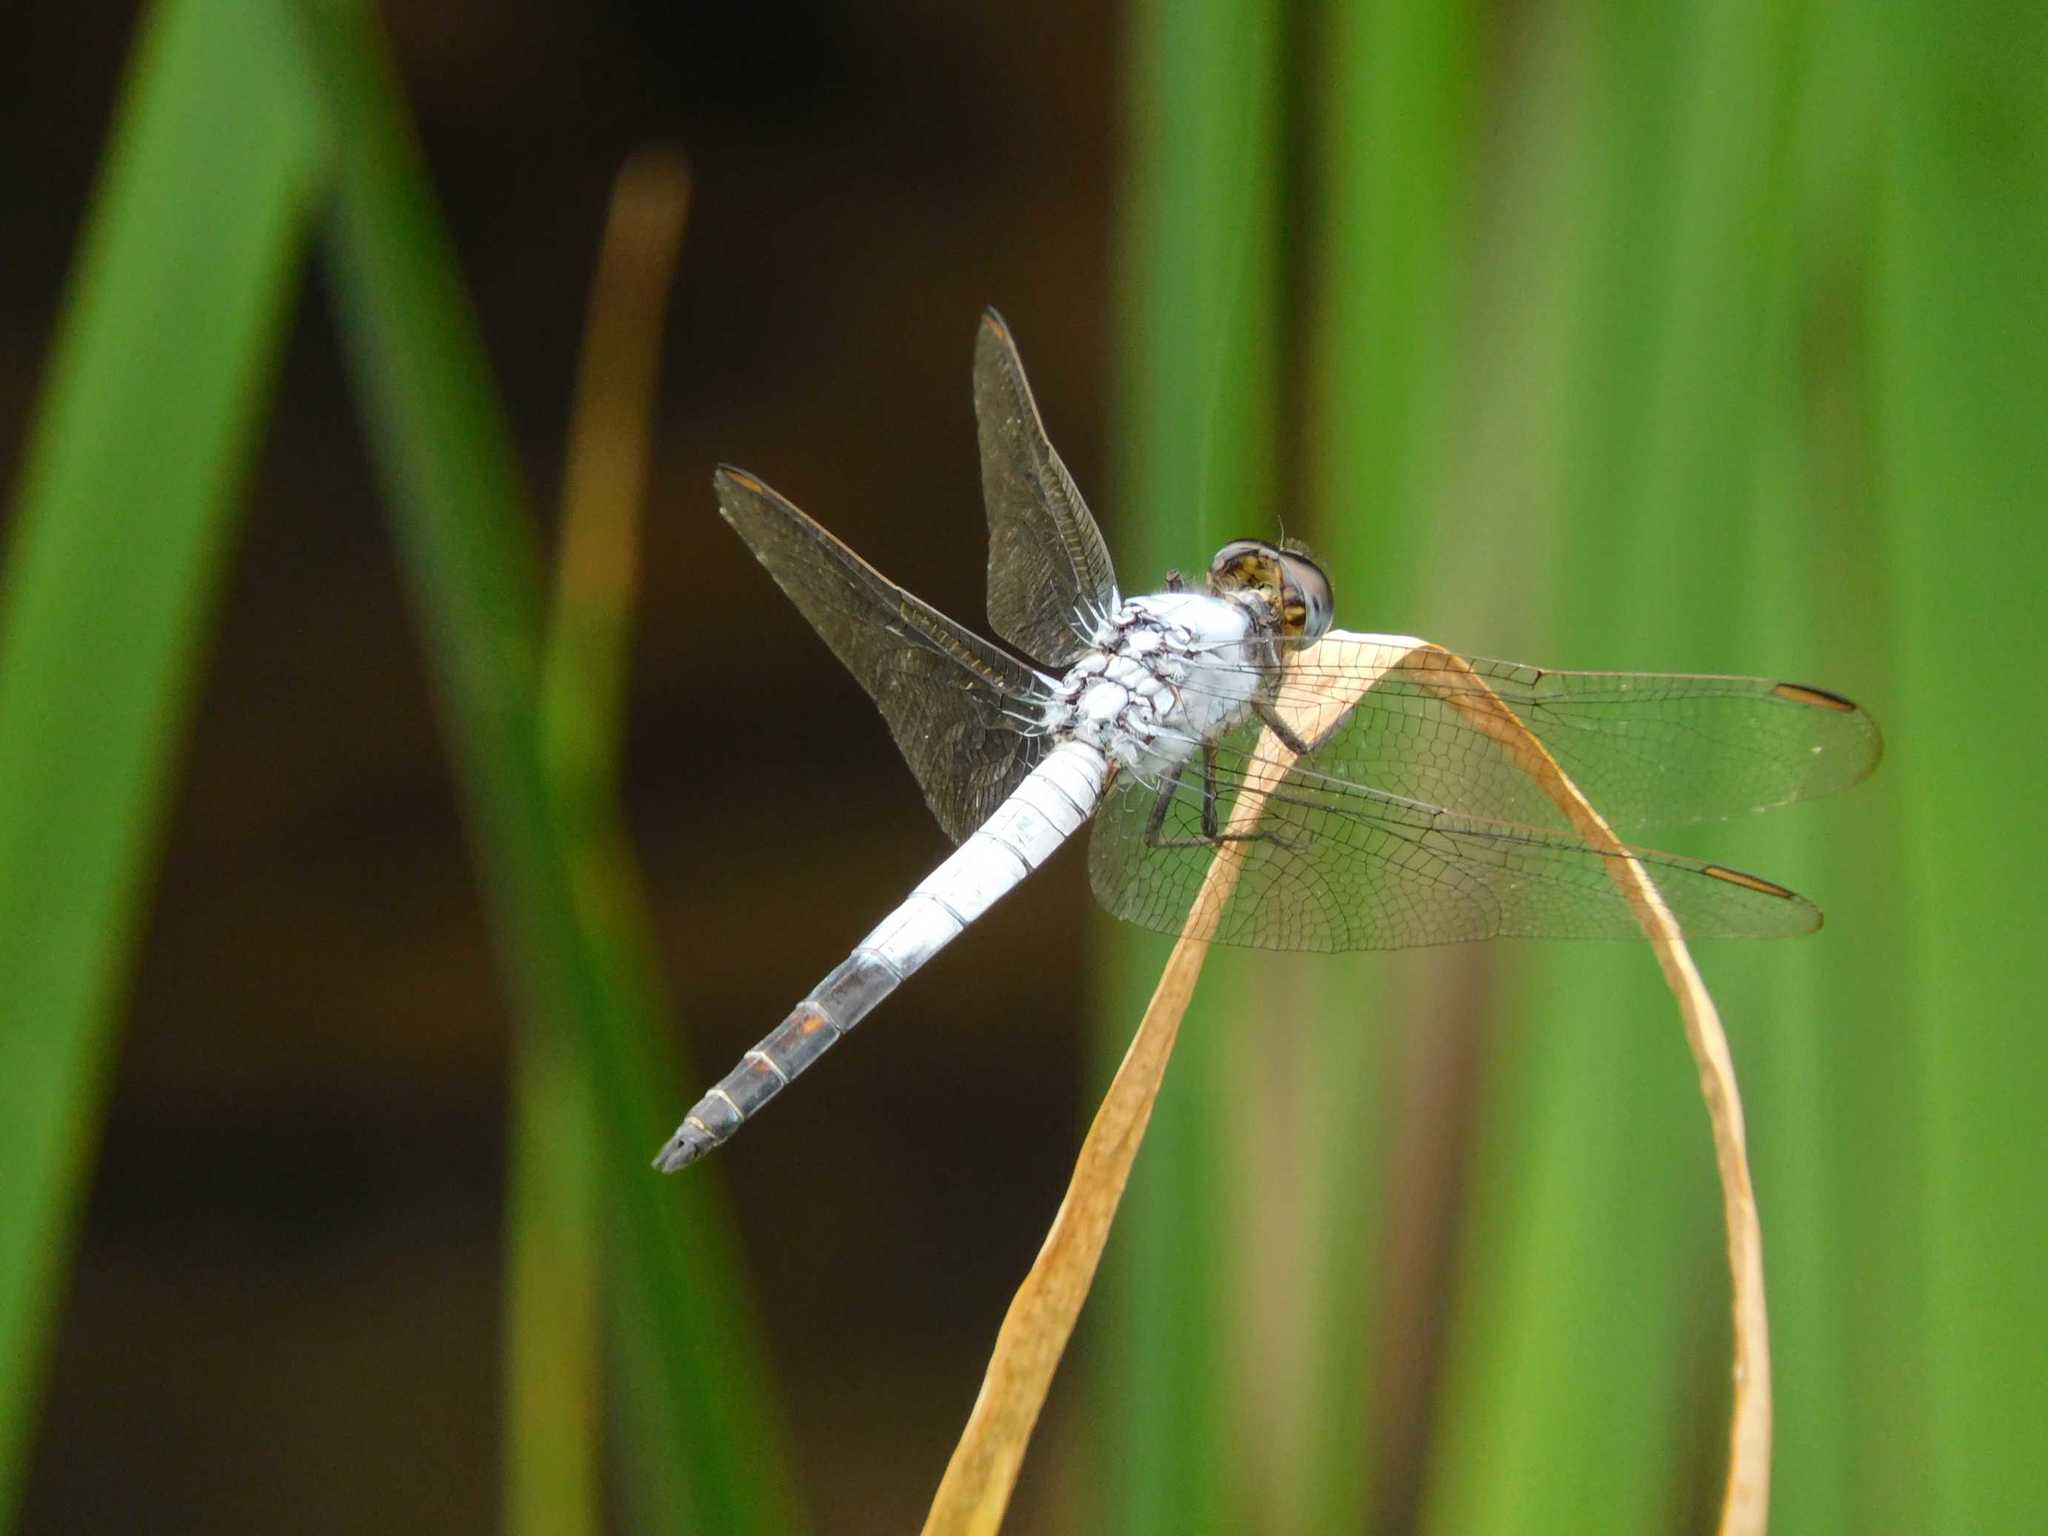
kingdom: Animalia
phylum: Arthropoda
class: Insecta
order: Odonata
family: Libellulidae
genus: Nesciothemis
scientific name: Nesciothemis farinosa
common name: Eastern blacktail
